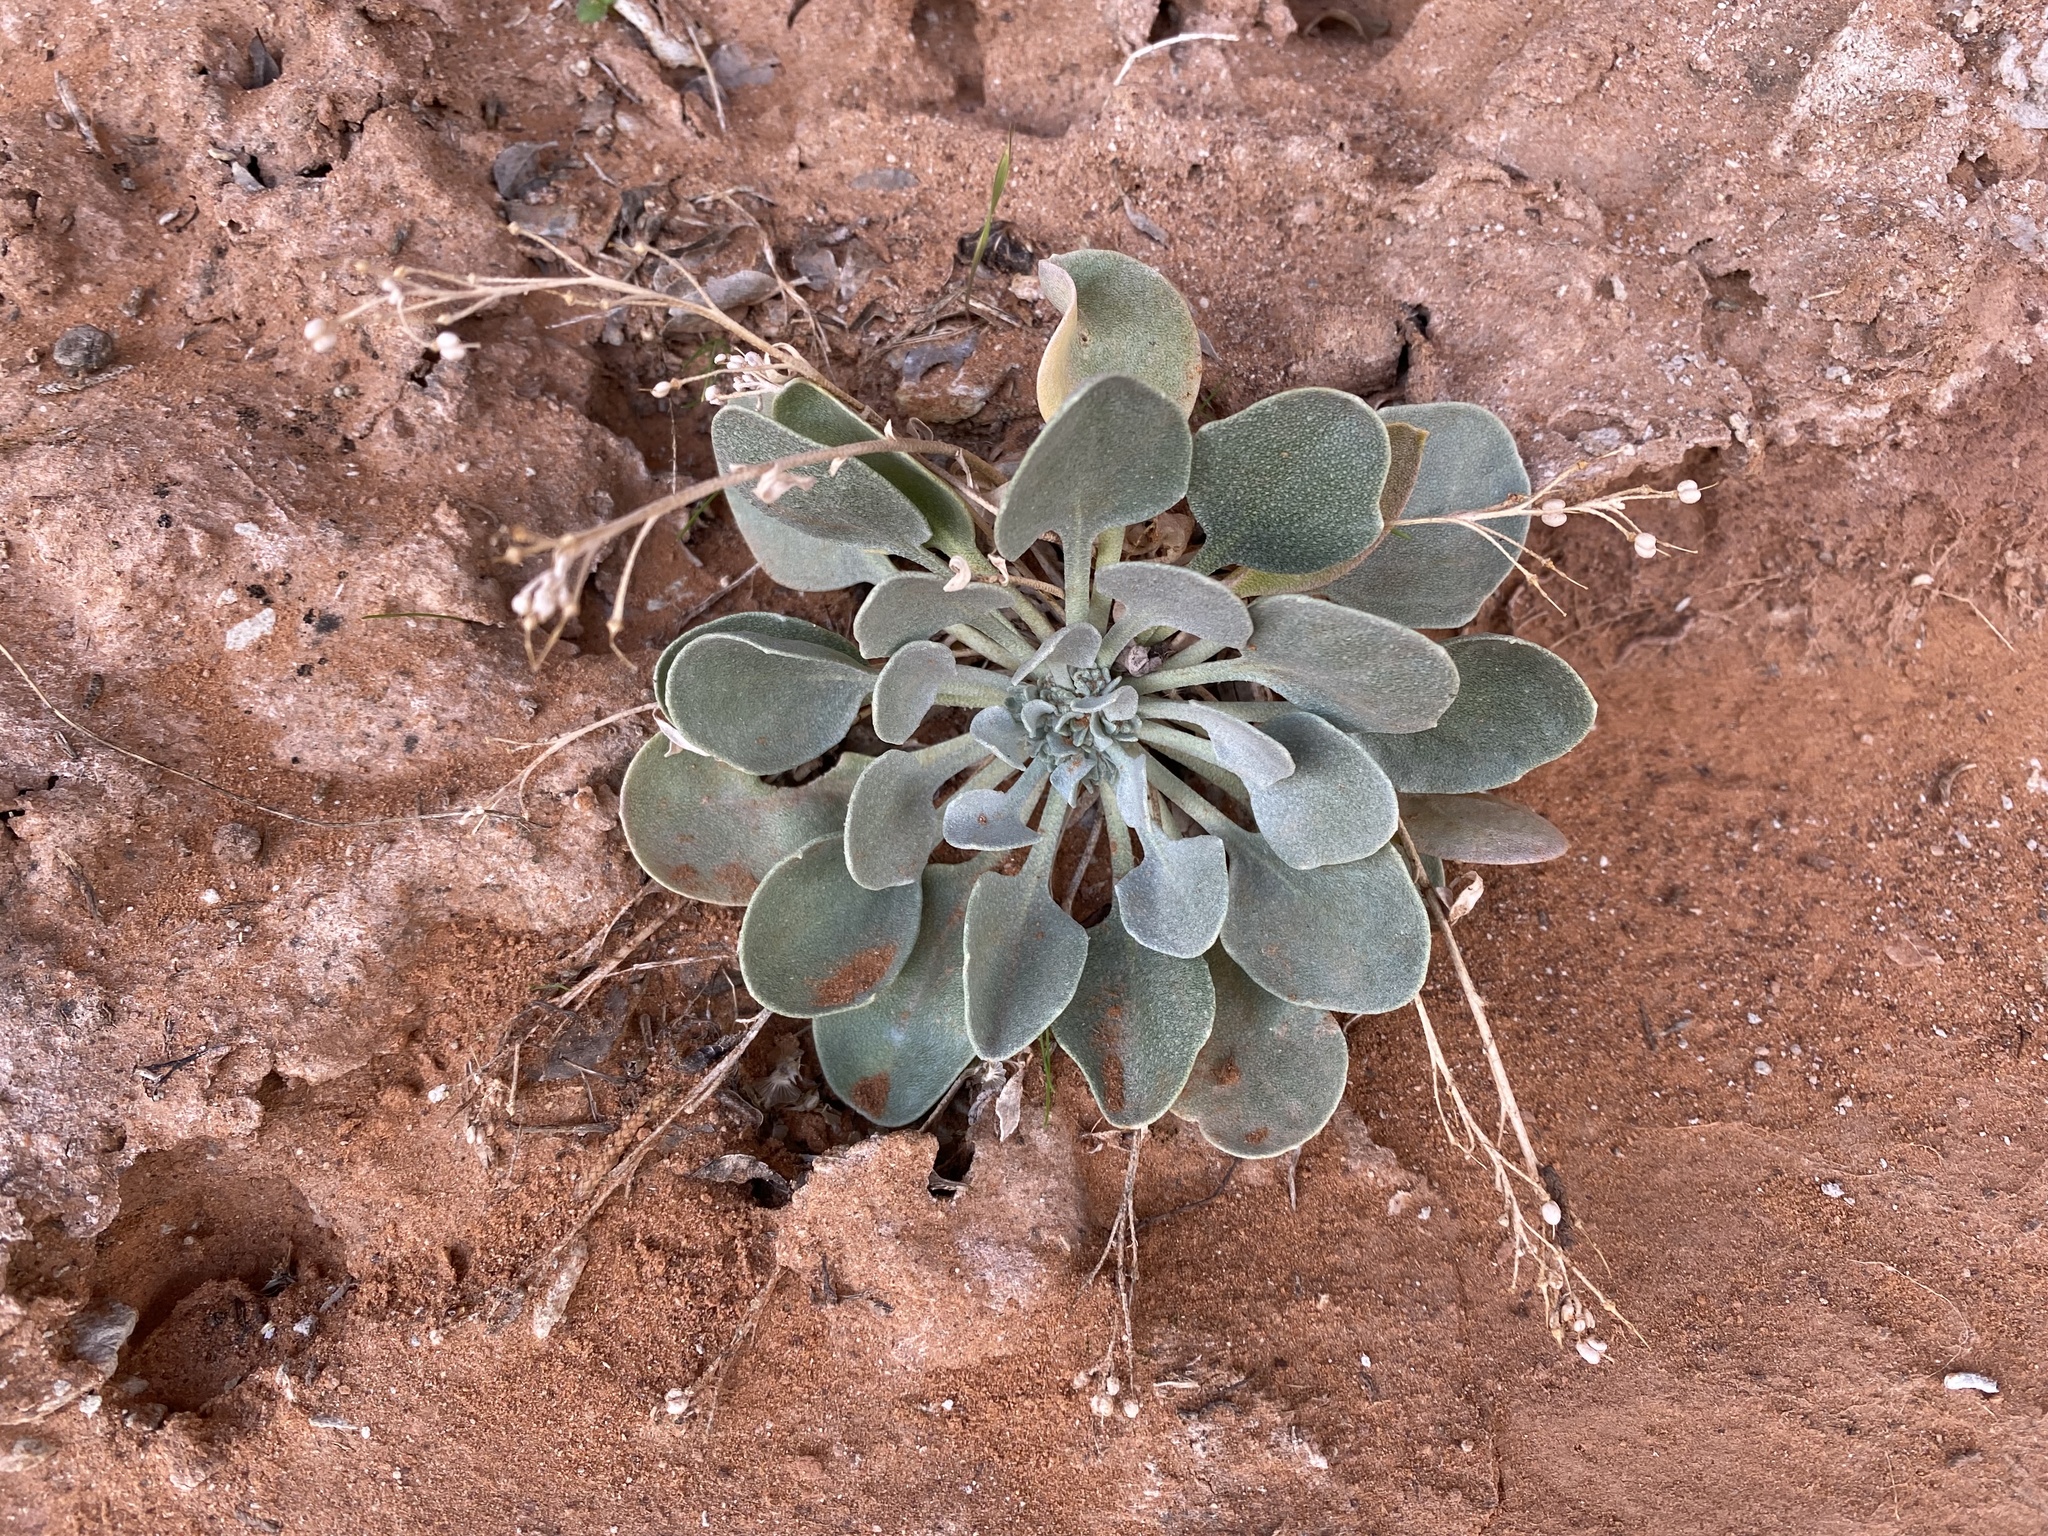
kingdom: Plantae
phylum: Tracheophyta
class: Magnoliopsida
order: Brassicales
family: Brassicaceae
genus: Physaria
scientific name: Physaria
